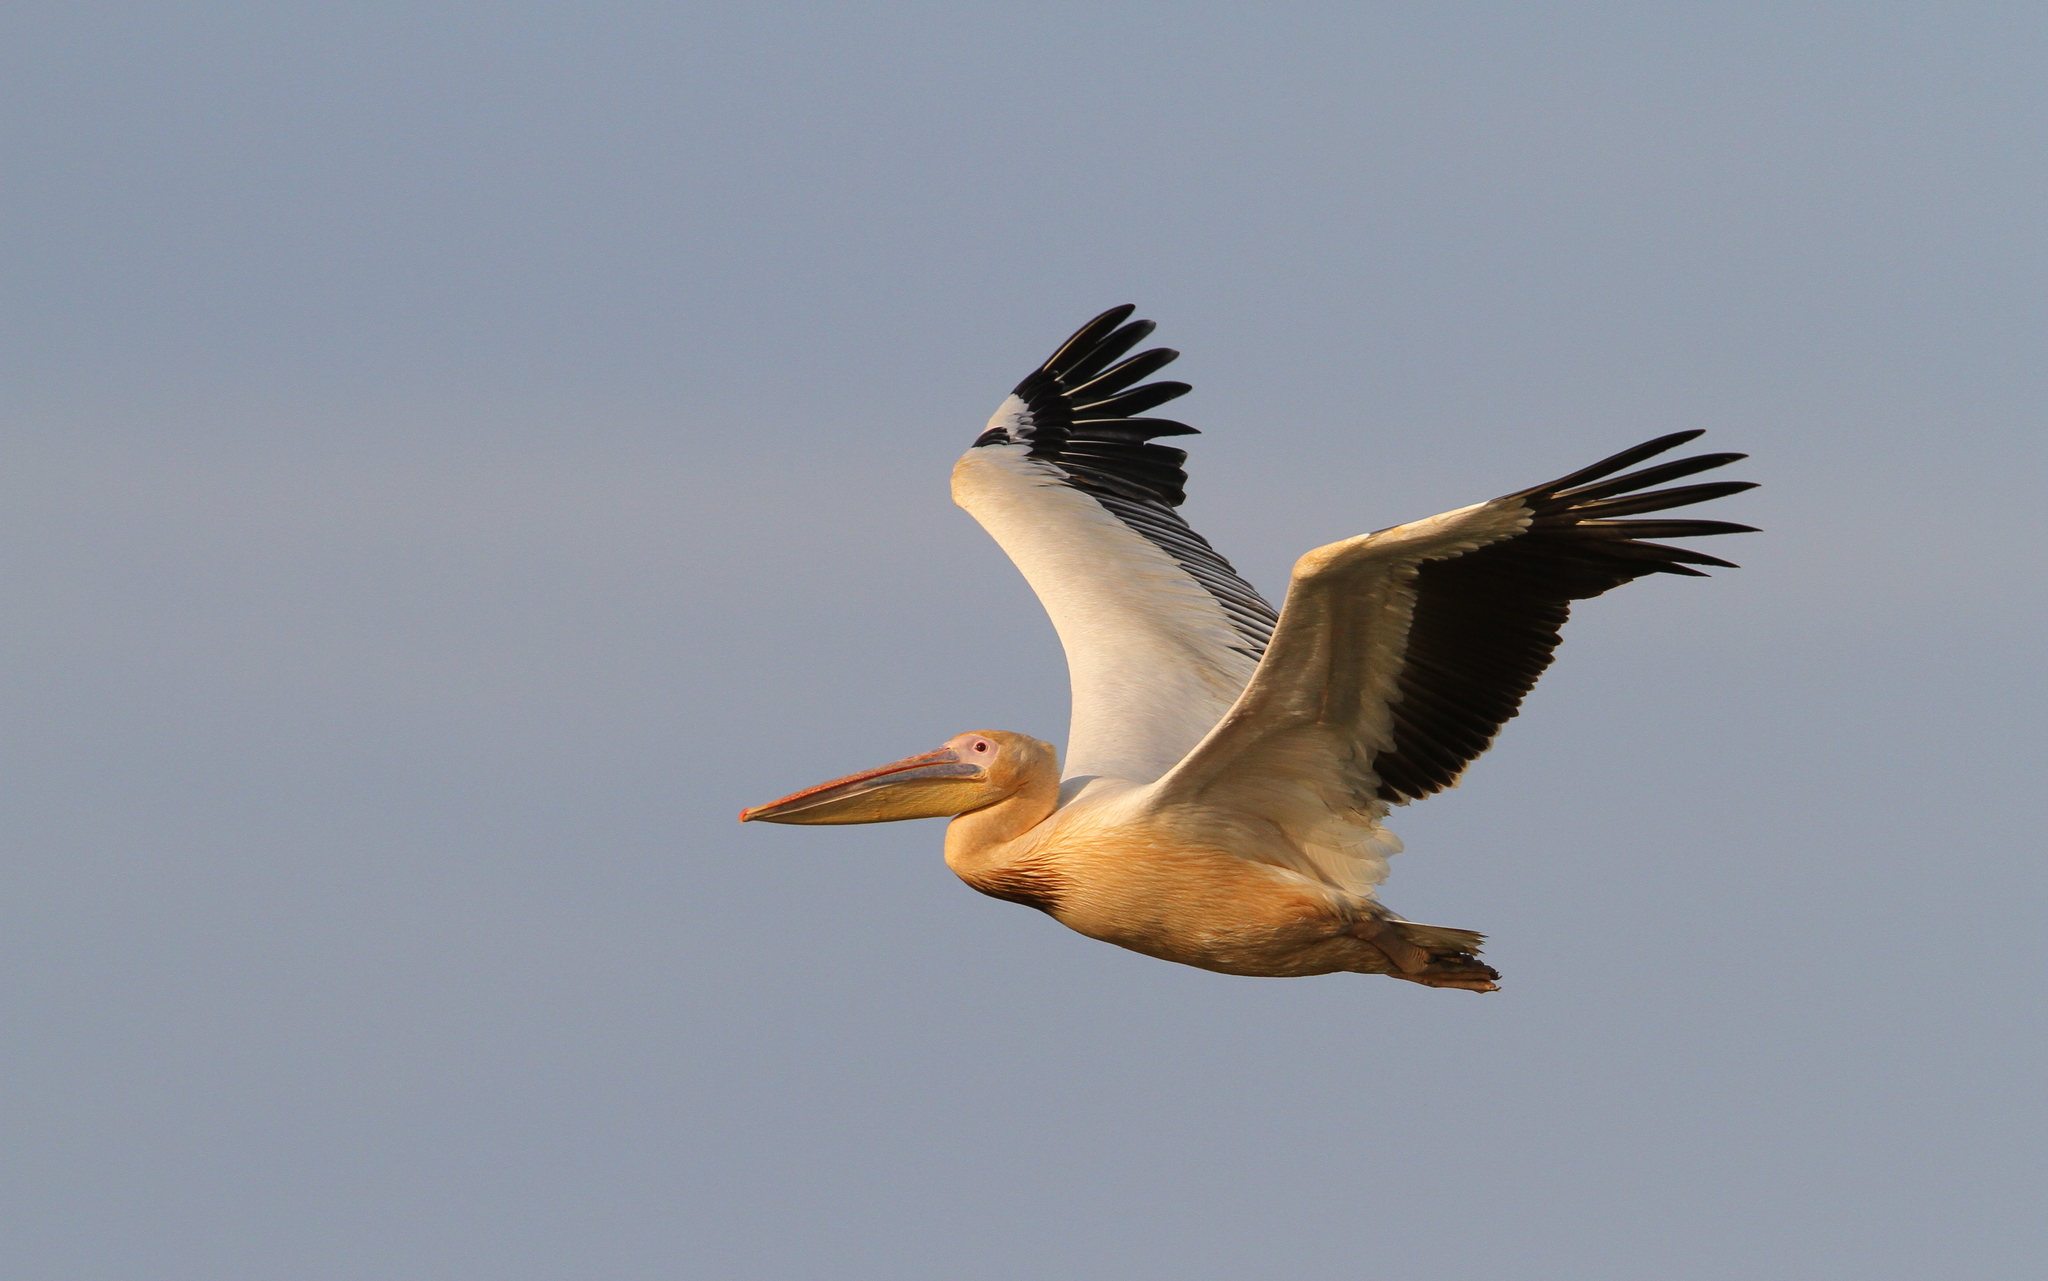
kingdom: Animalia
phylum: Chordata
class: Aves
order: Pelecaniformes
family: Pelecanidae
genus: Pelecanus
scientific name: Pelecanus onocrotalus
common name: Great white pelican
